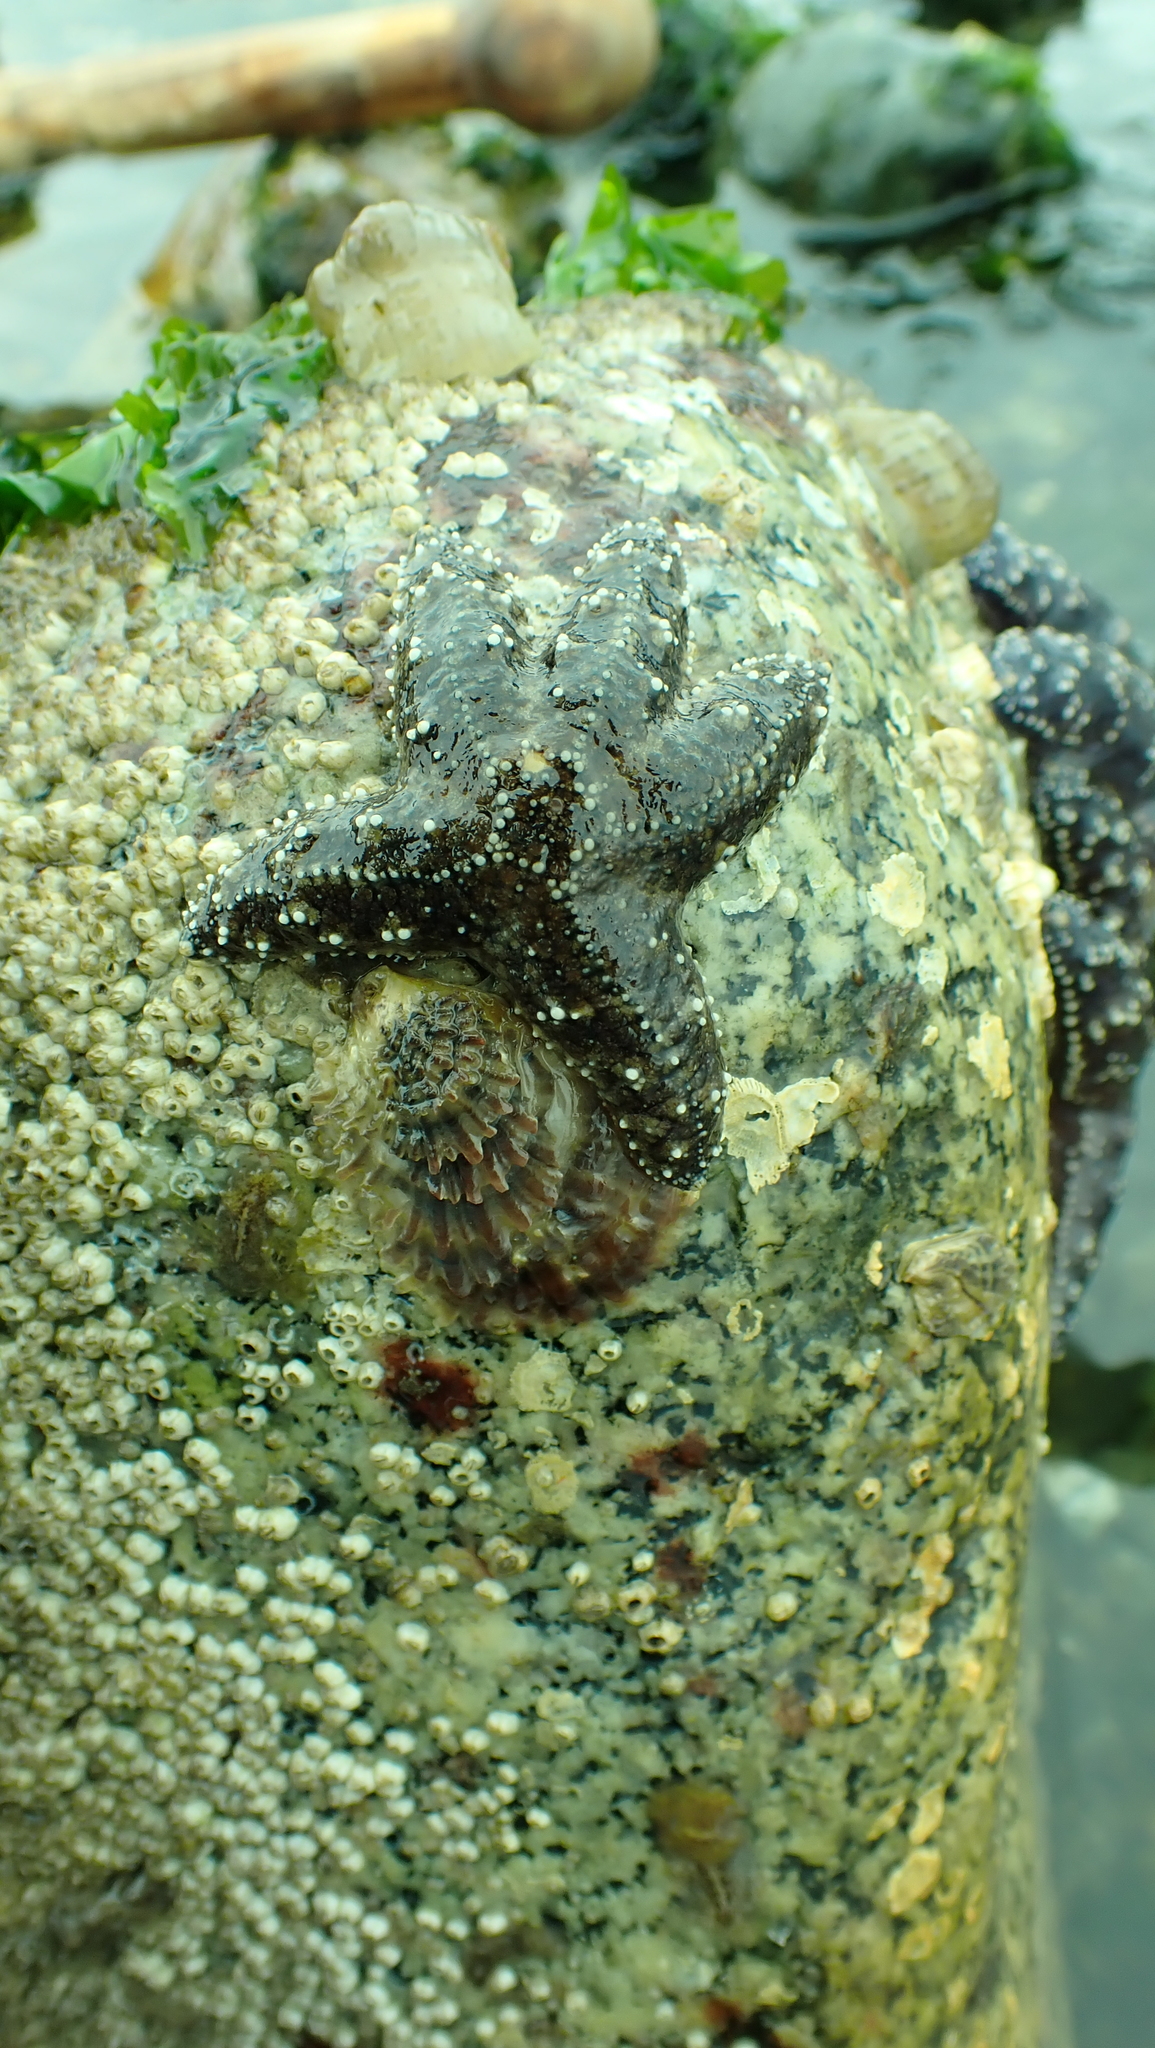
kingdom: Animalia
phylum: Echinodermata
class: Asteroidea
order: Forcipulatida
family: Asteriidae
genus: Pisaster
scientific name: Pisaster ochraceus
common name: Ochre stars
